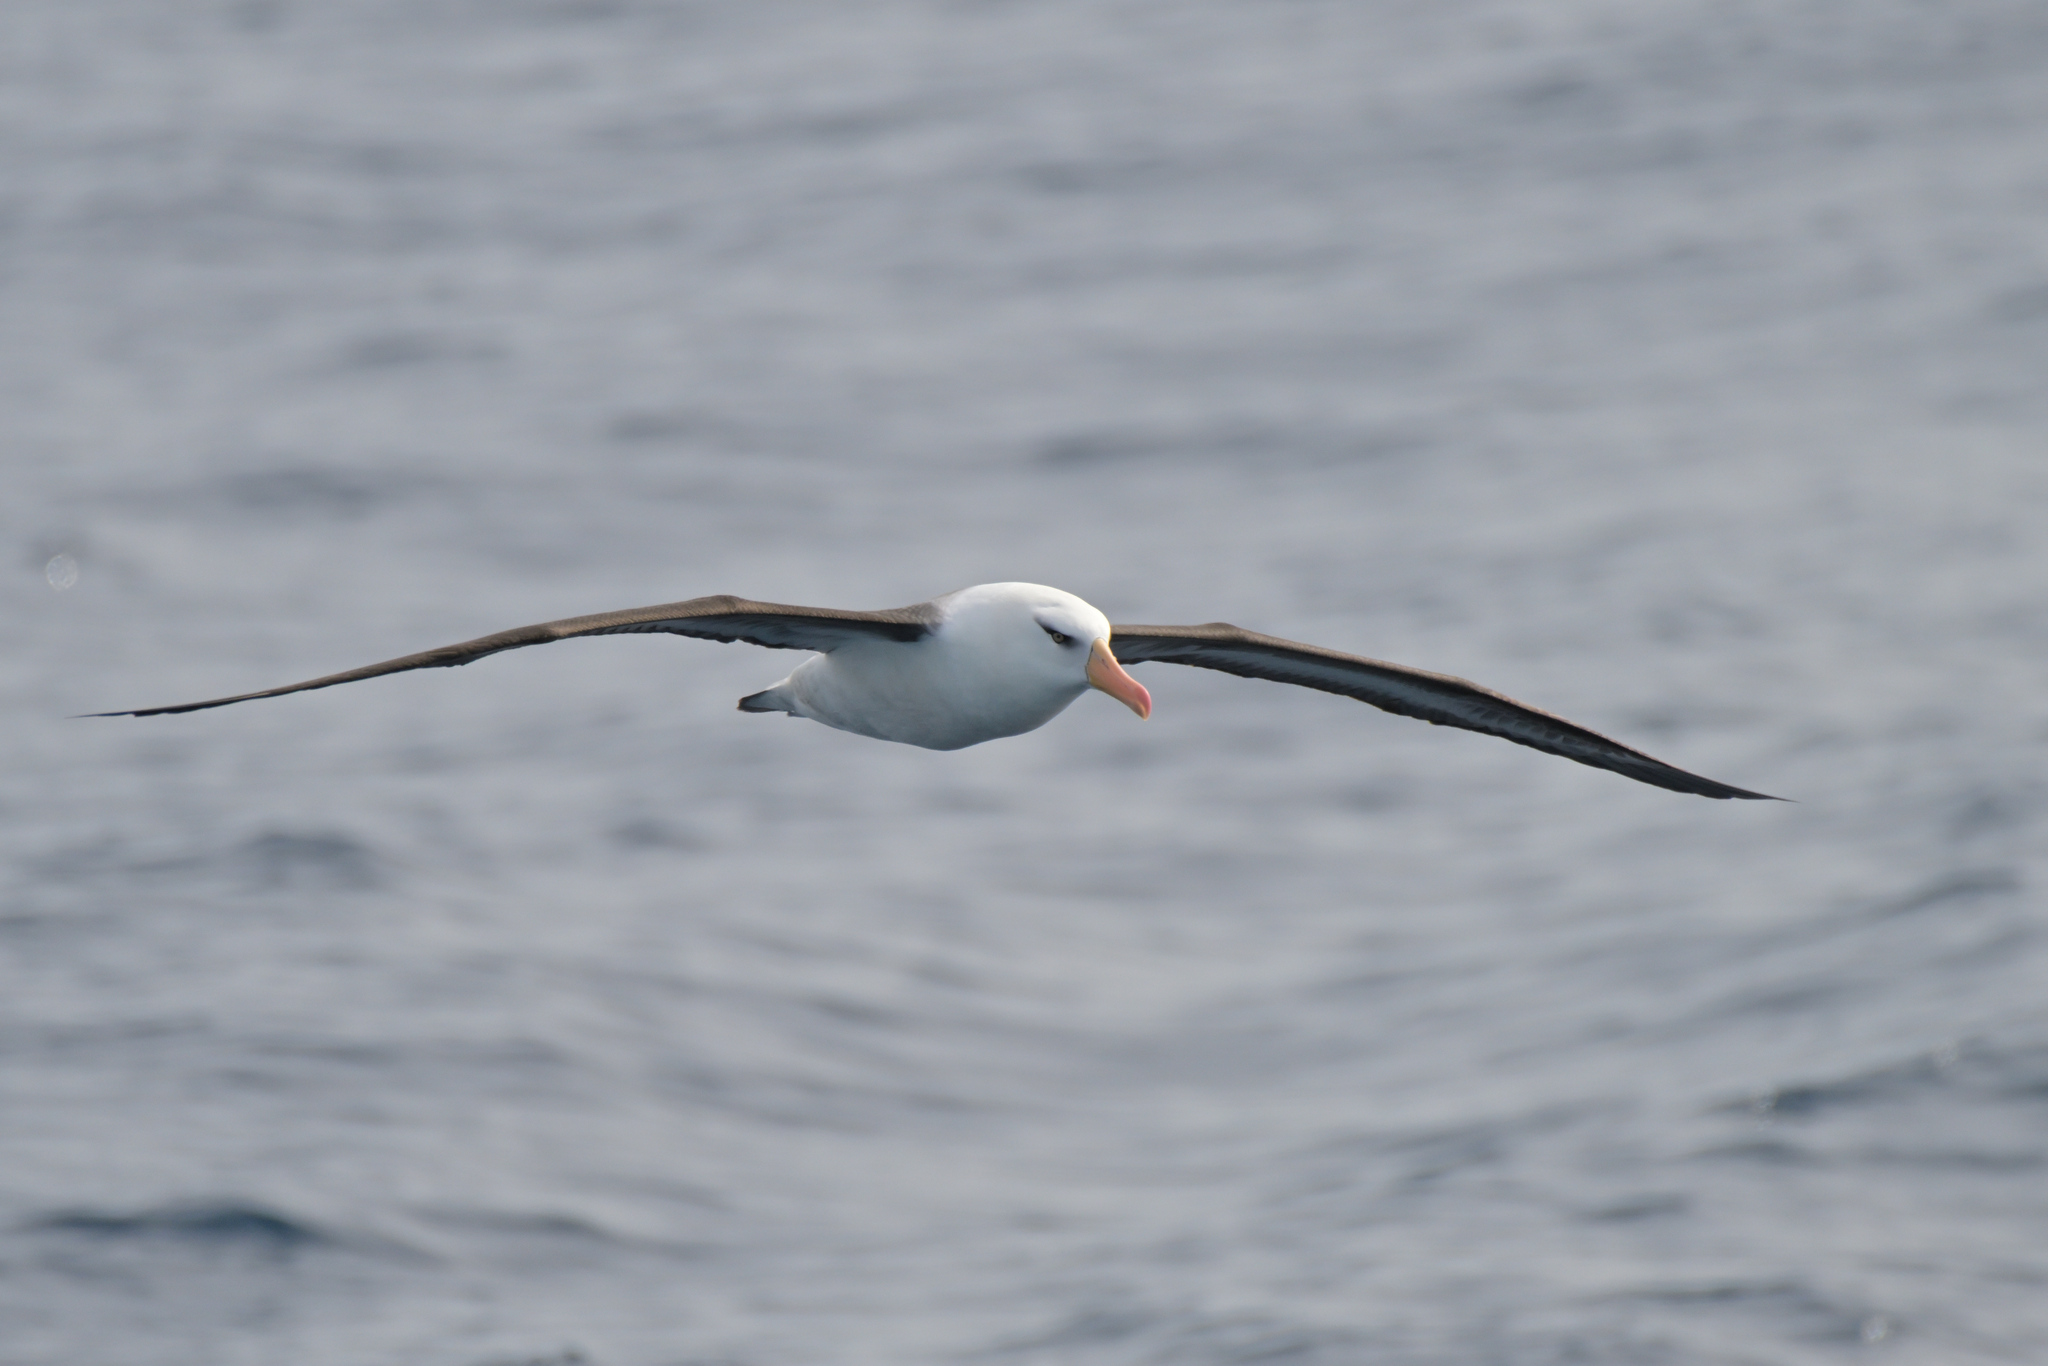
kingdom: Animalia
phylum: Chordata
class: Aves
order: Procellariiformes
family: Diomedeidae
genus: Thalassarche
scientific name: Thalassarche impavida
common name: Campbell albatross
